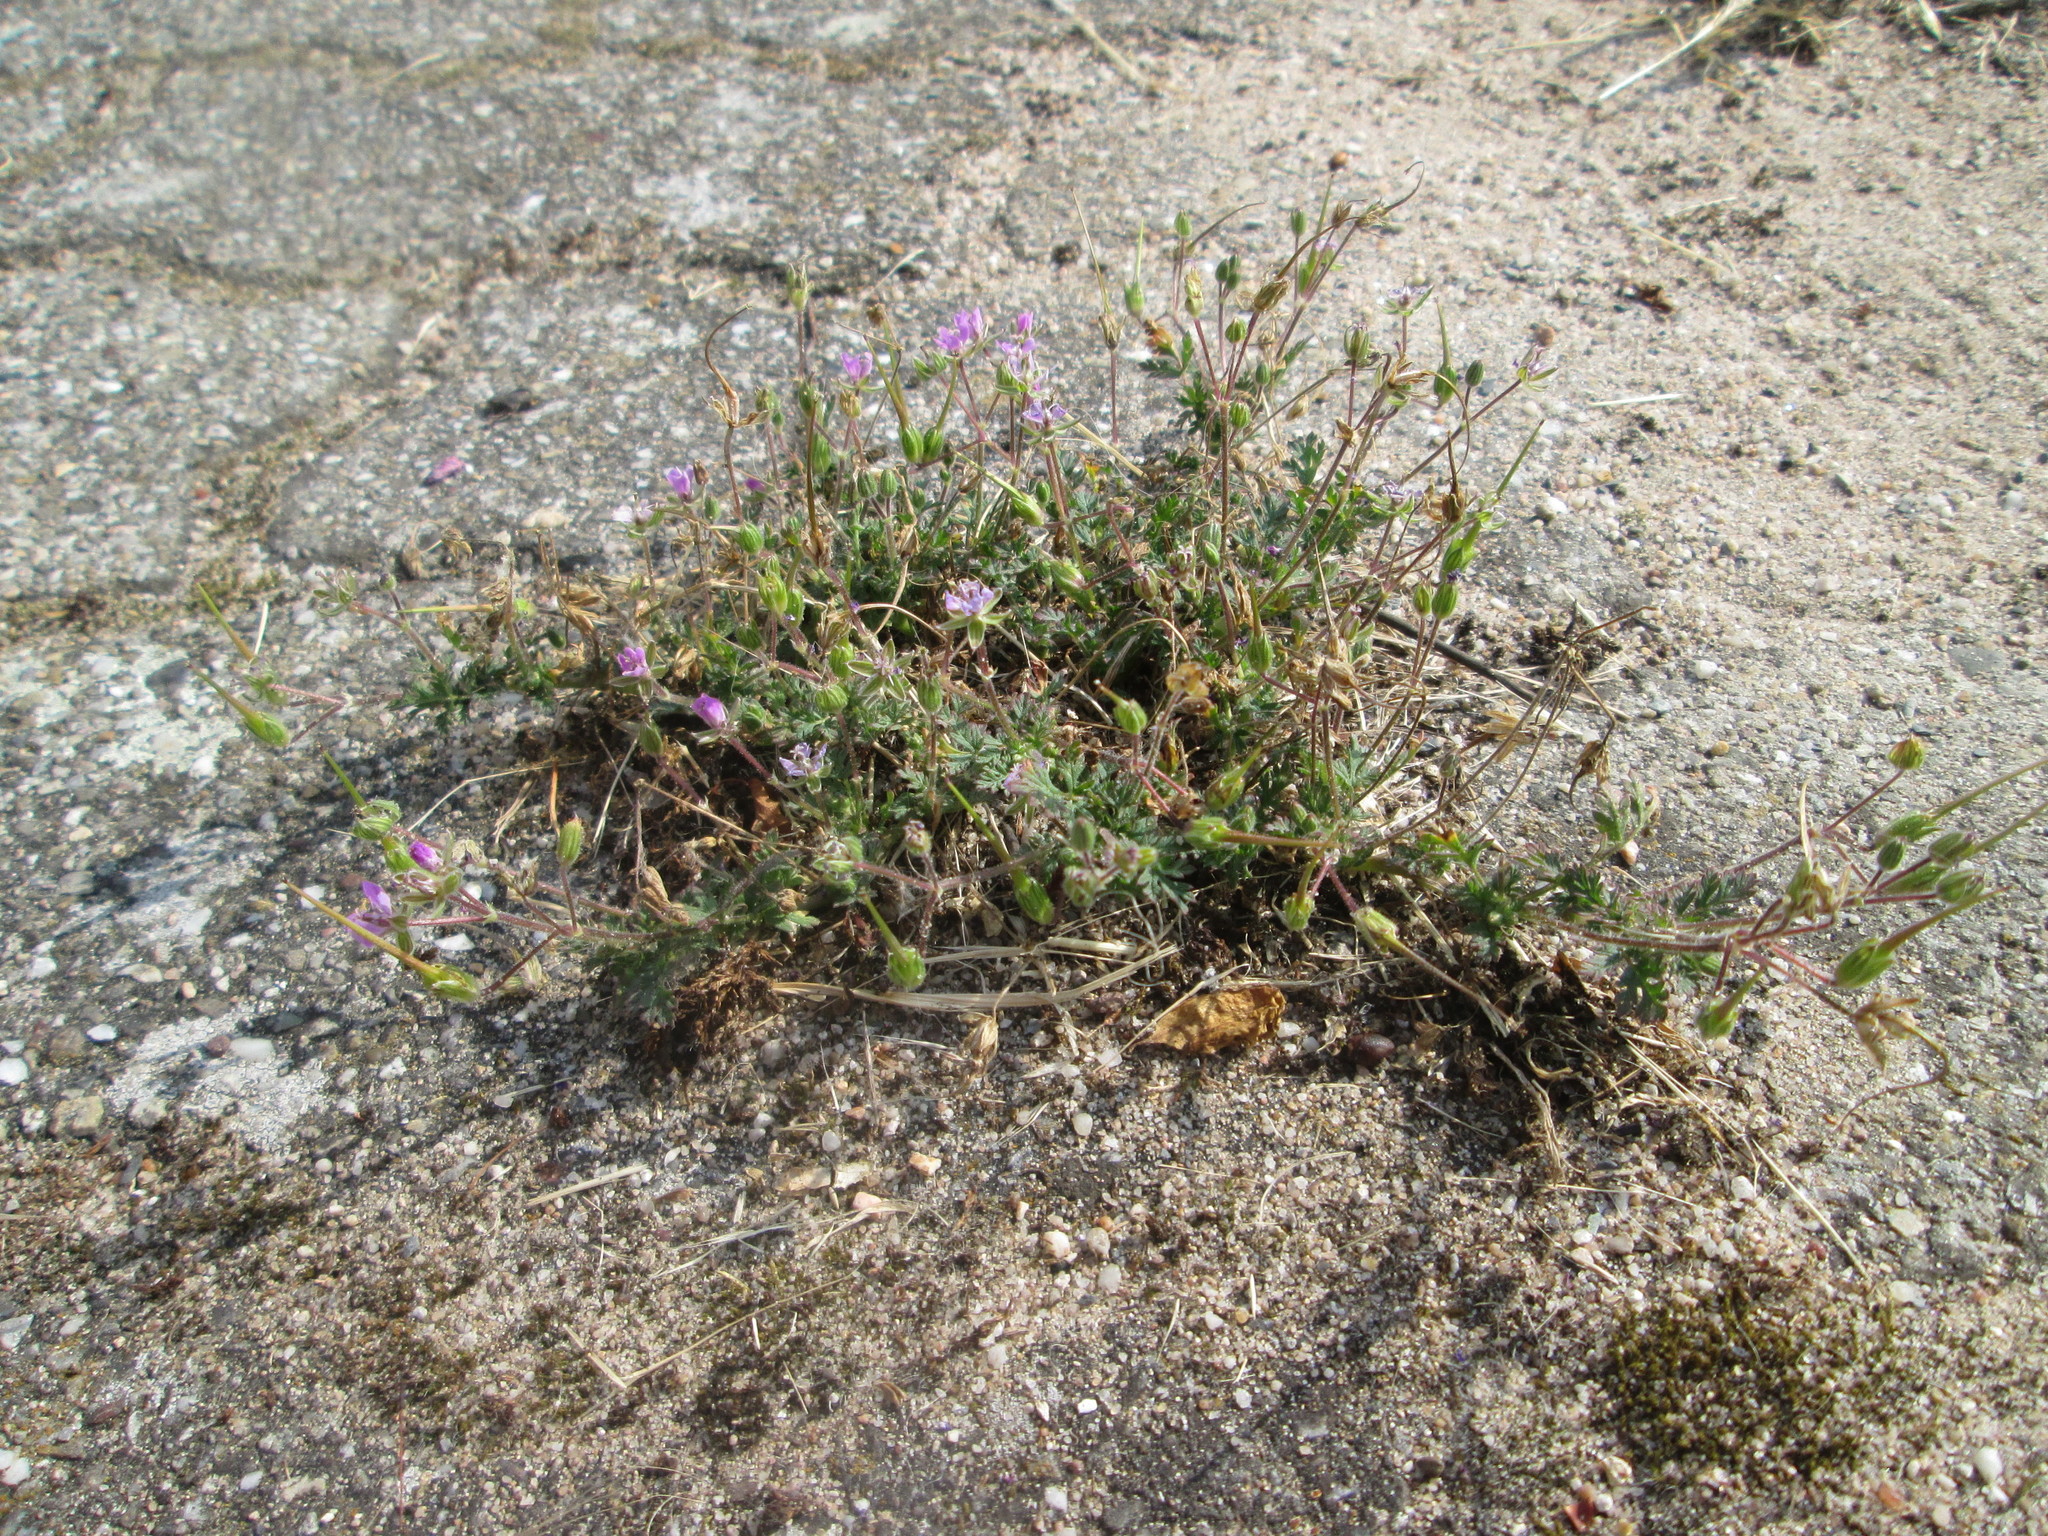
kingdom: Plantae
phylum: Tracheophyta
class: Magnoliopsida
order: Geraniales
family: Geraniaceae
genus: Erodium
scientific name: Erodium cicutarium
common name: Common stork's-bill
